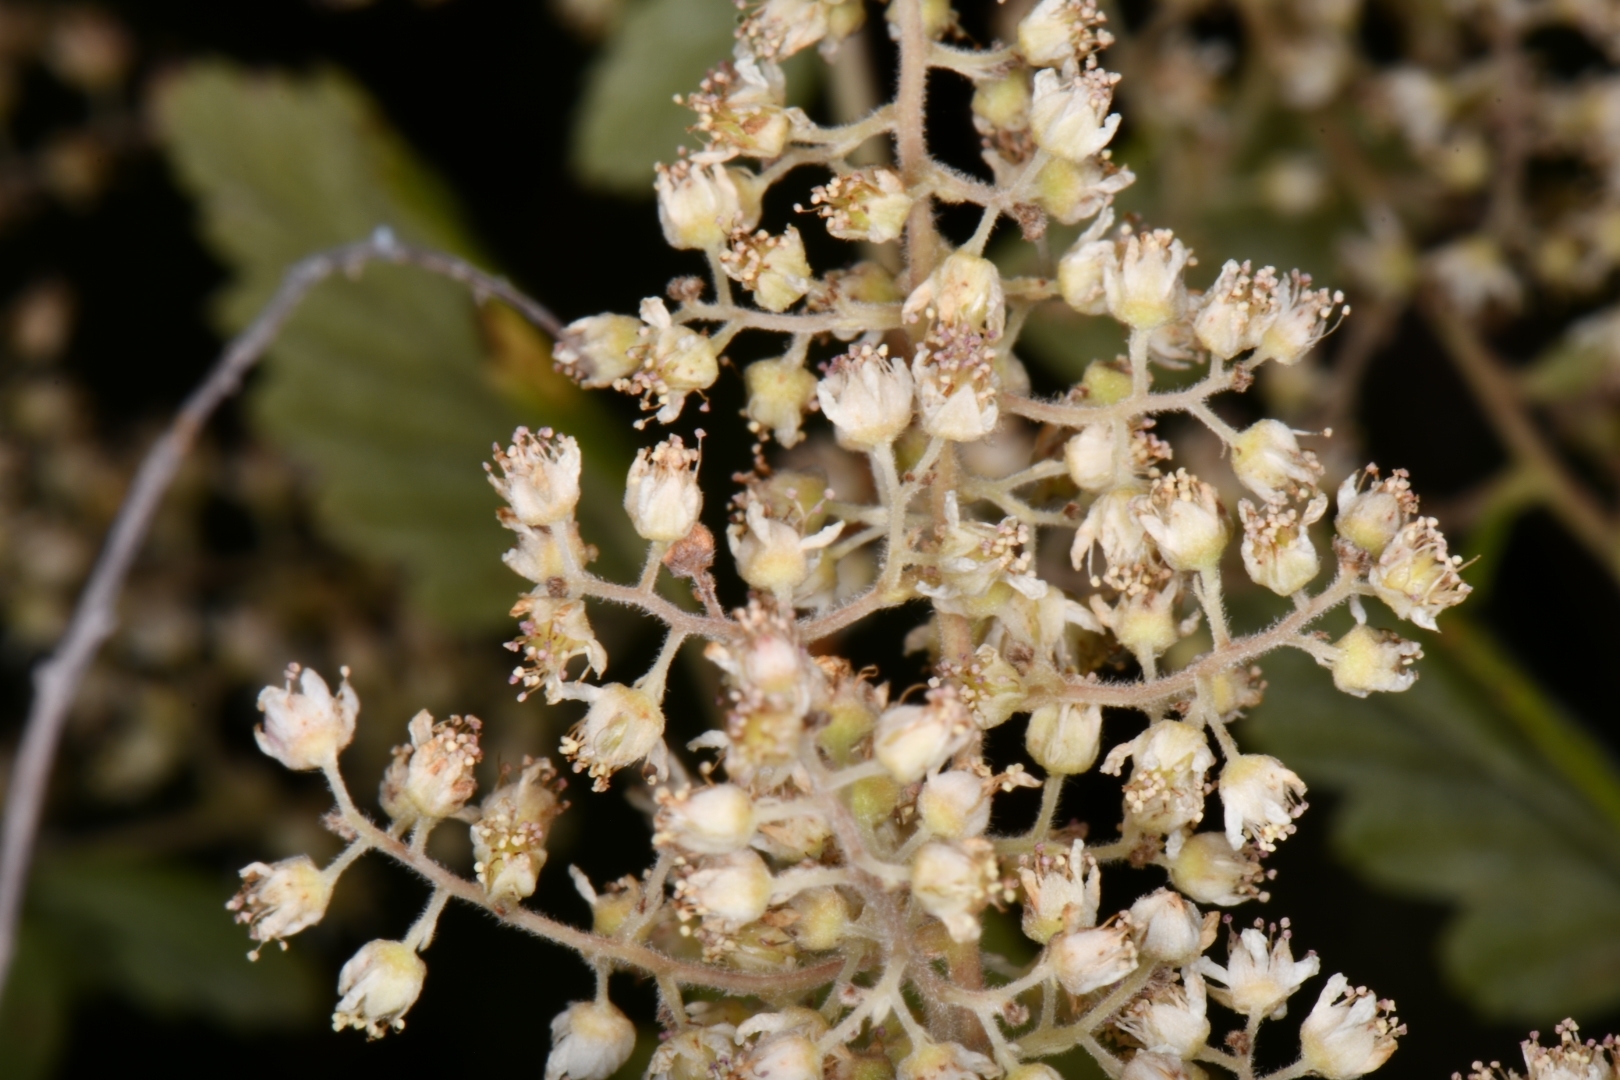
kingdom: Plantae
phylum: Tracheophyta
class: Magnoliopsida
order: Rosales
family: Rosaceae
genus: Holodiscus
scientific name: Holodiscus discolor
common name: Oceanspray
